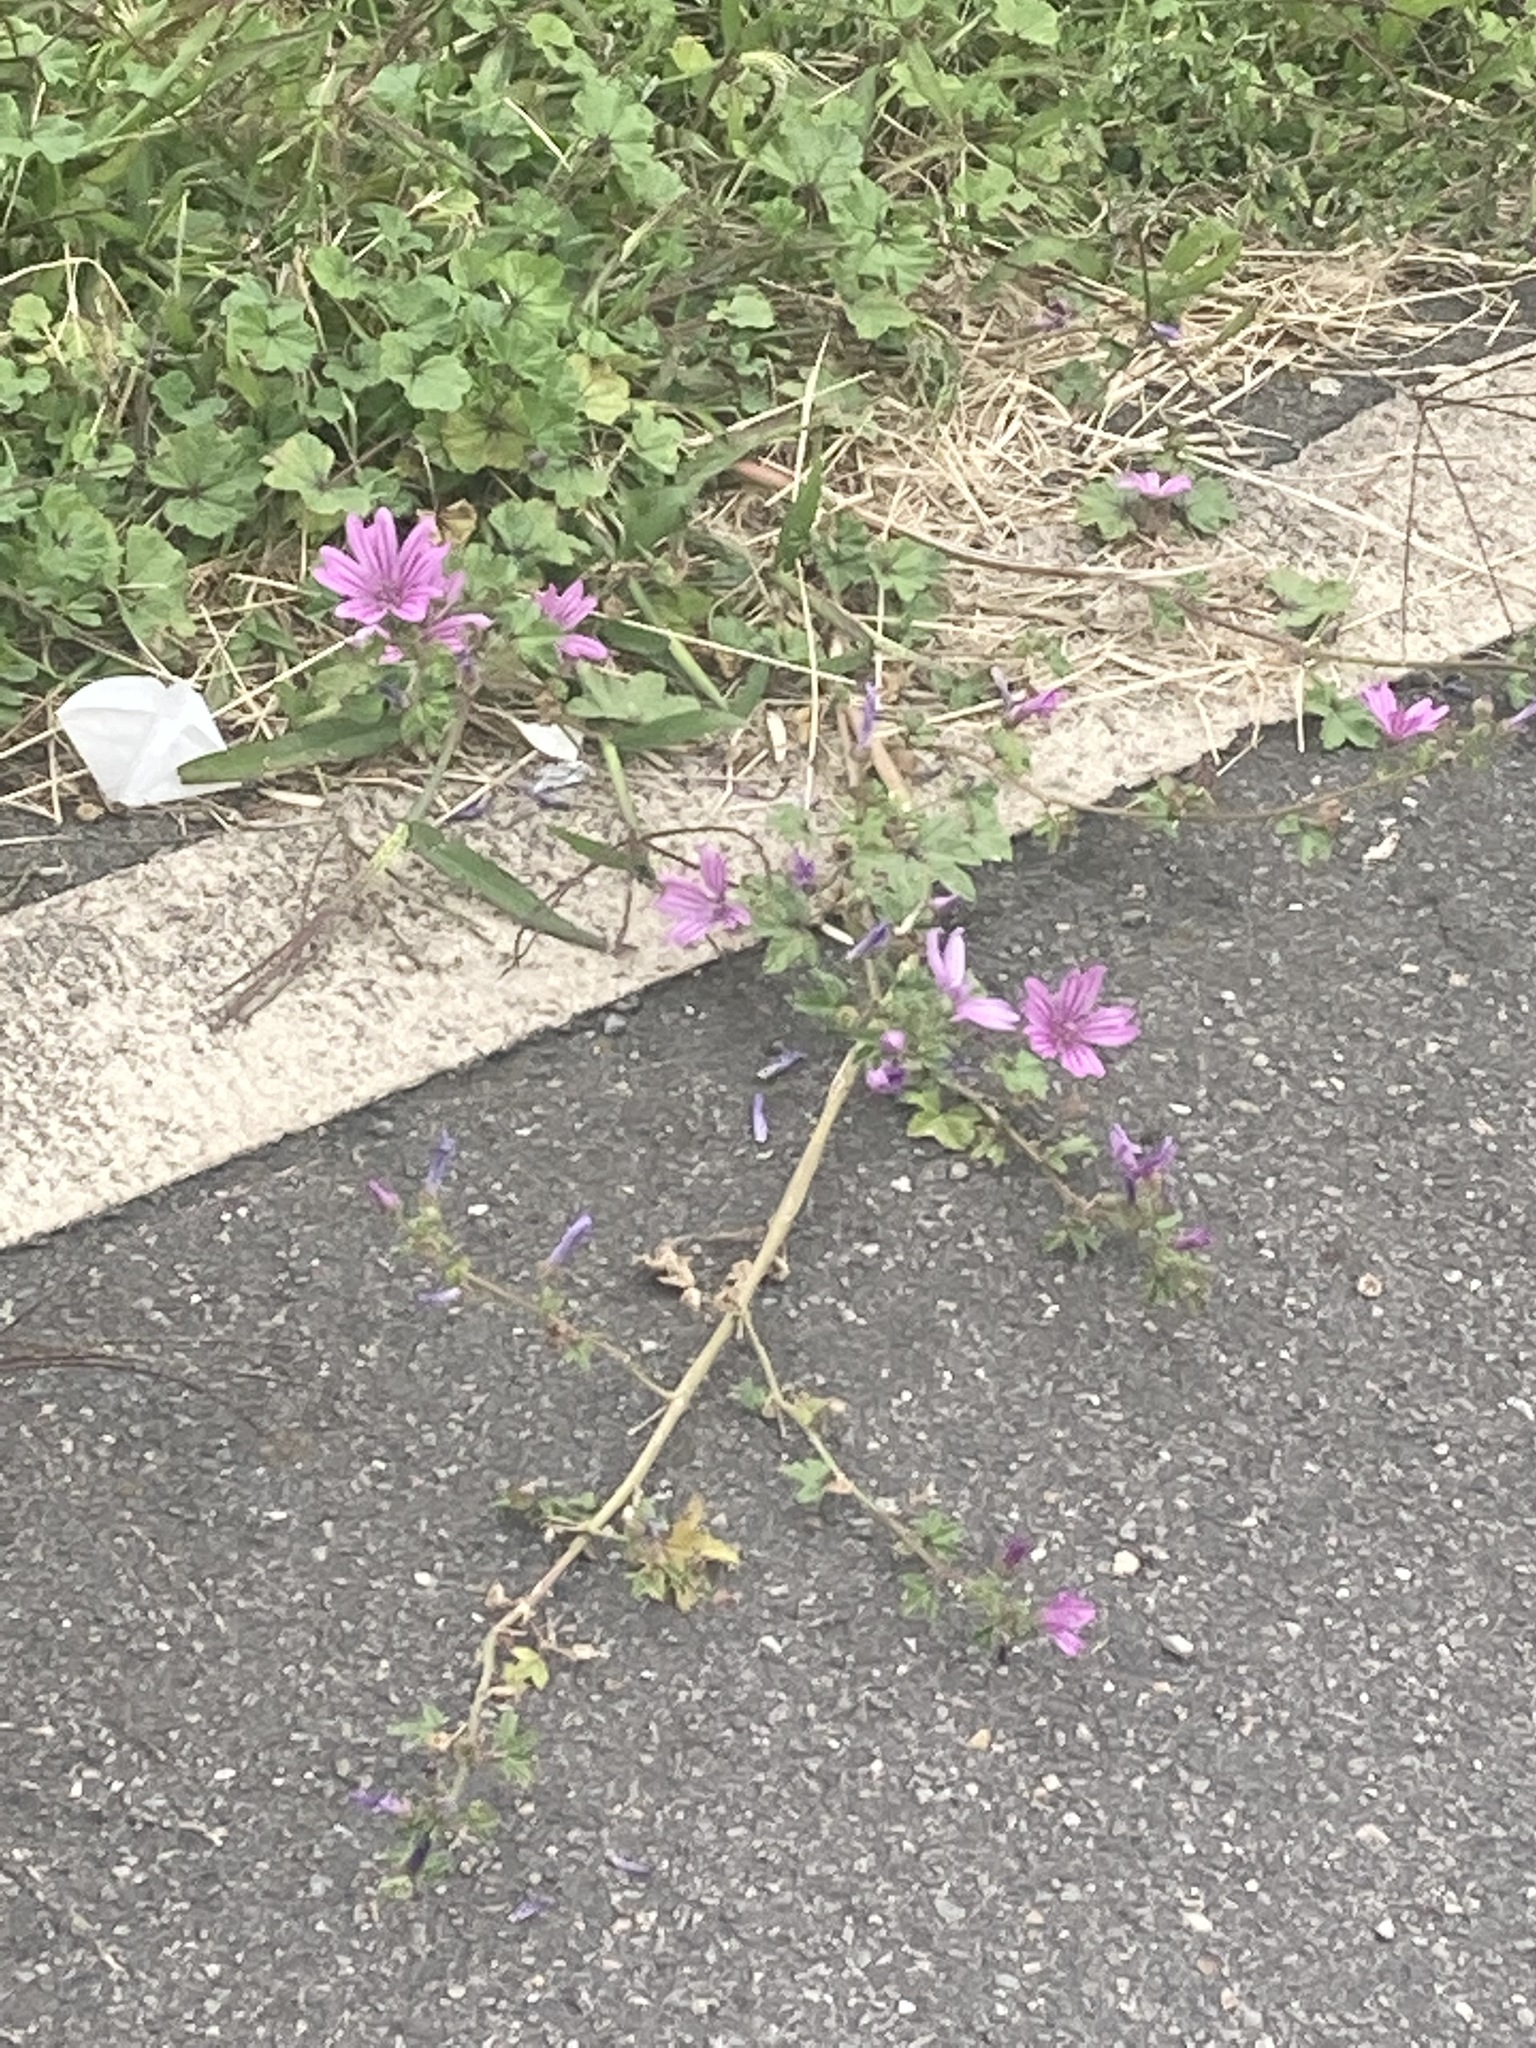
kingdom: Plantae
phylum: Tracheophyta
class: Magnoliopsida
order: Malvales
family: Malvaceae
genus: Malva
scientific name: Malva sylvestris
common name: Common mallow
